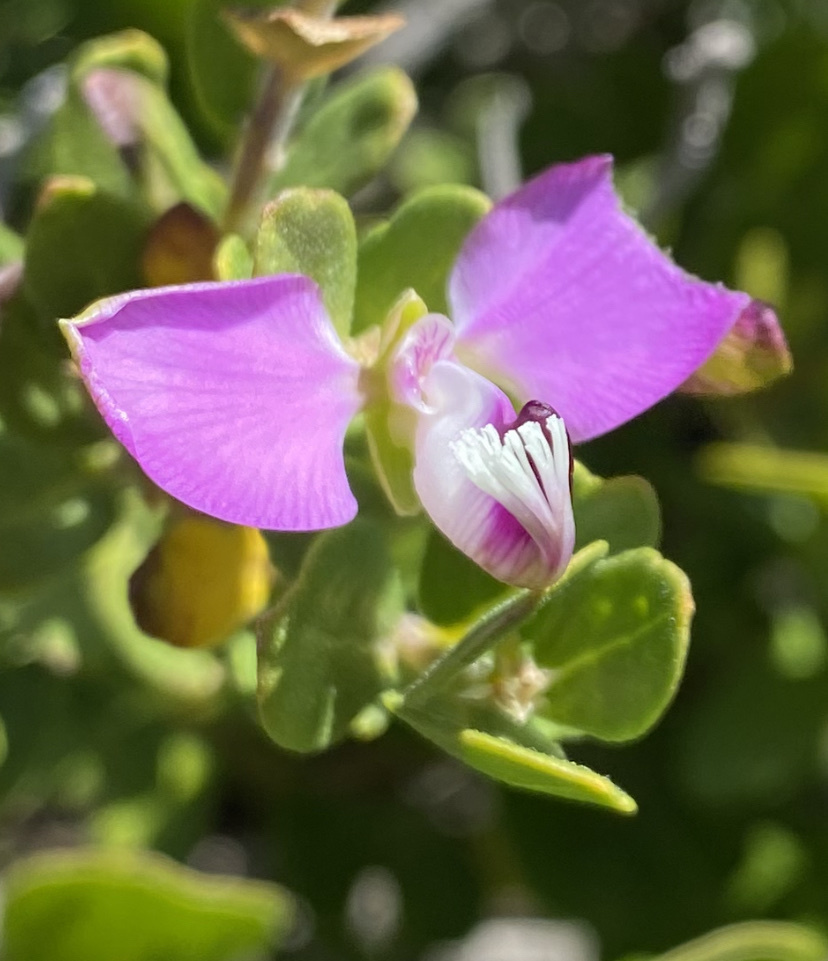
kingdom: Plantae
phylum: Tracheophyta
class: Magnoliopsida
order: Fabales
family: Polygalaceae
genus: Polygala
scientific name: Polygala myrtifolia
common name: Myrtle-leaf milkwort
